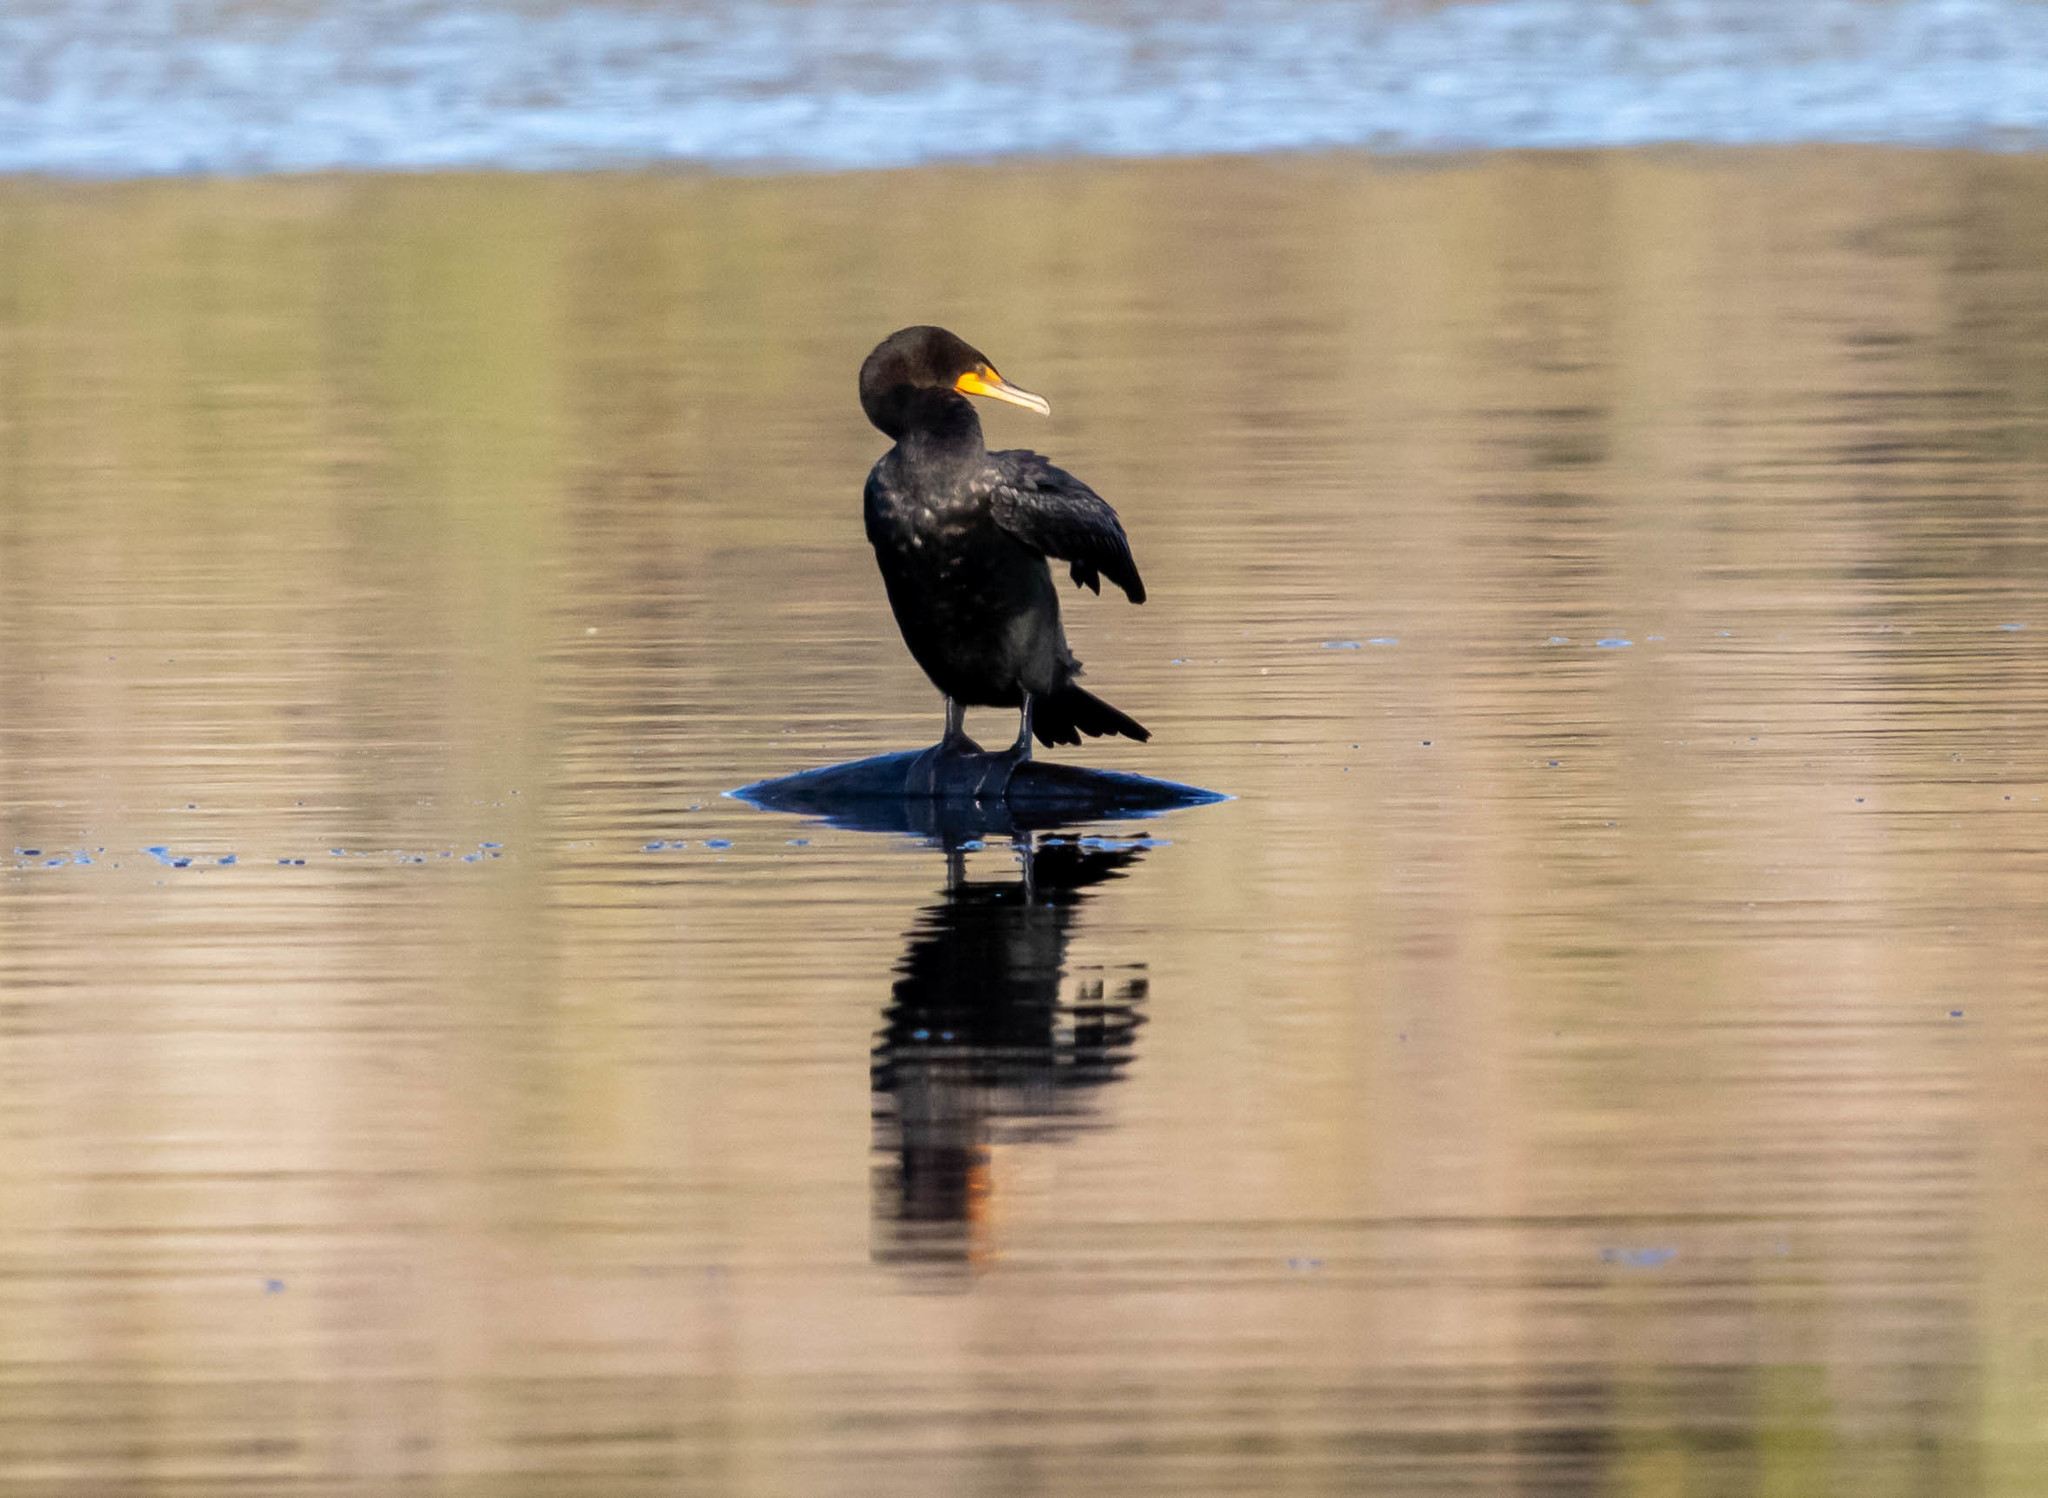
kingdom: Animalia
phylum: Chordata
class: Aves
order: Suliformes
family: Phalacrocoracidae
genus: Phalacrocorax
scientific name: Phalacrocorax auritus
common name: Double-crested cormorant
